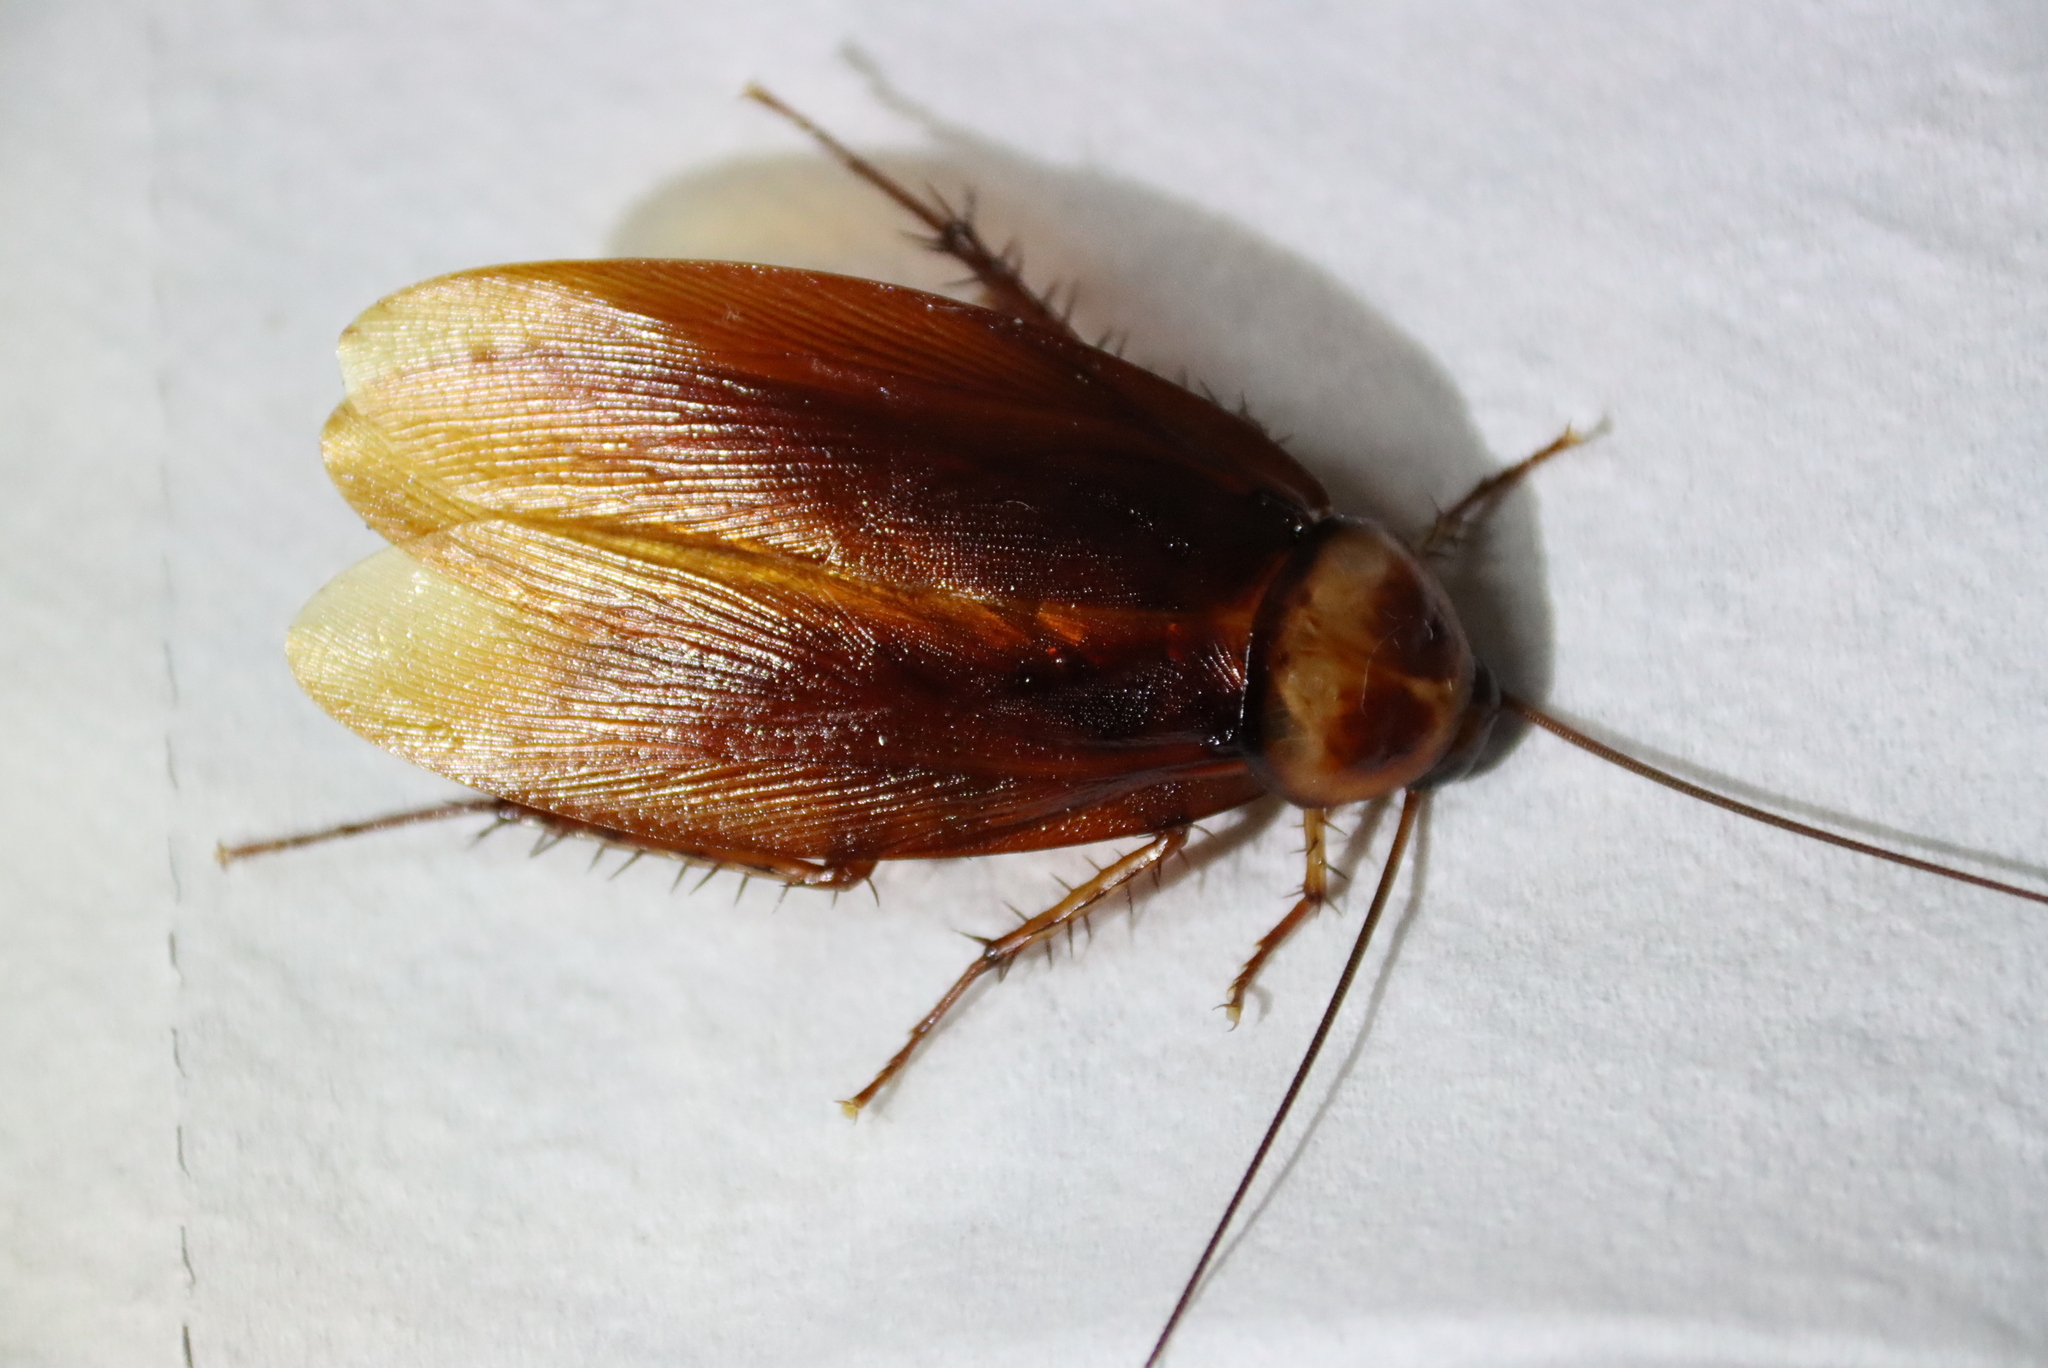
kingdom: Animalia
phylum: Arthropoda
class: Insecta
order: Blattodea
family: Blattidae
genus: Periplaneta
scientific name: Periplaneta americana
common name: American cockroach
